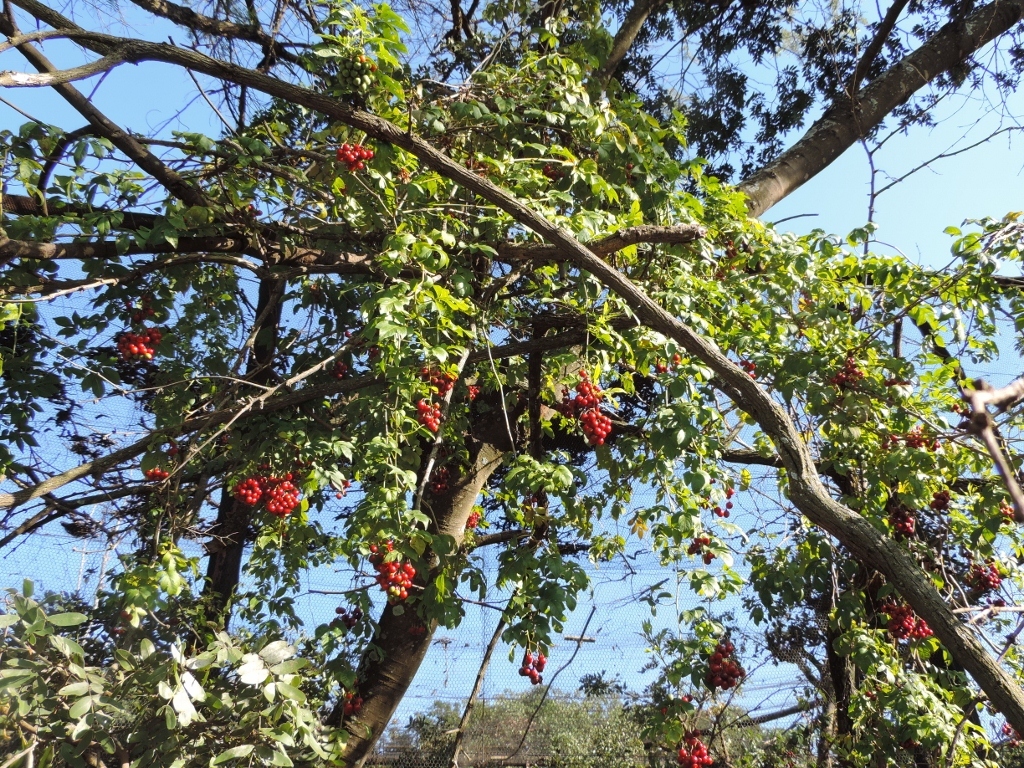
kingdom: Plantae
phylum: Tracheophyta
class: Magnoliopsida
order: Solanales
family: Solanaceae
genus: Solanum
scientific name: Solanum seaforthianum
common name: Brazilian nightshade
